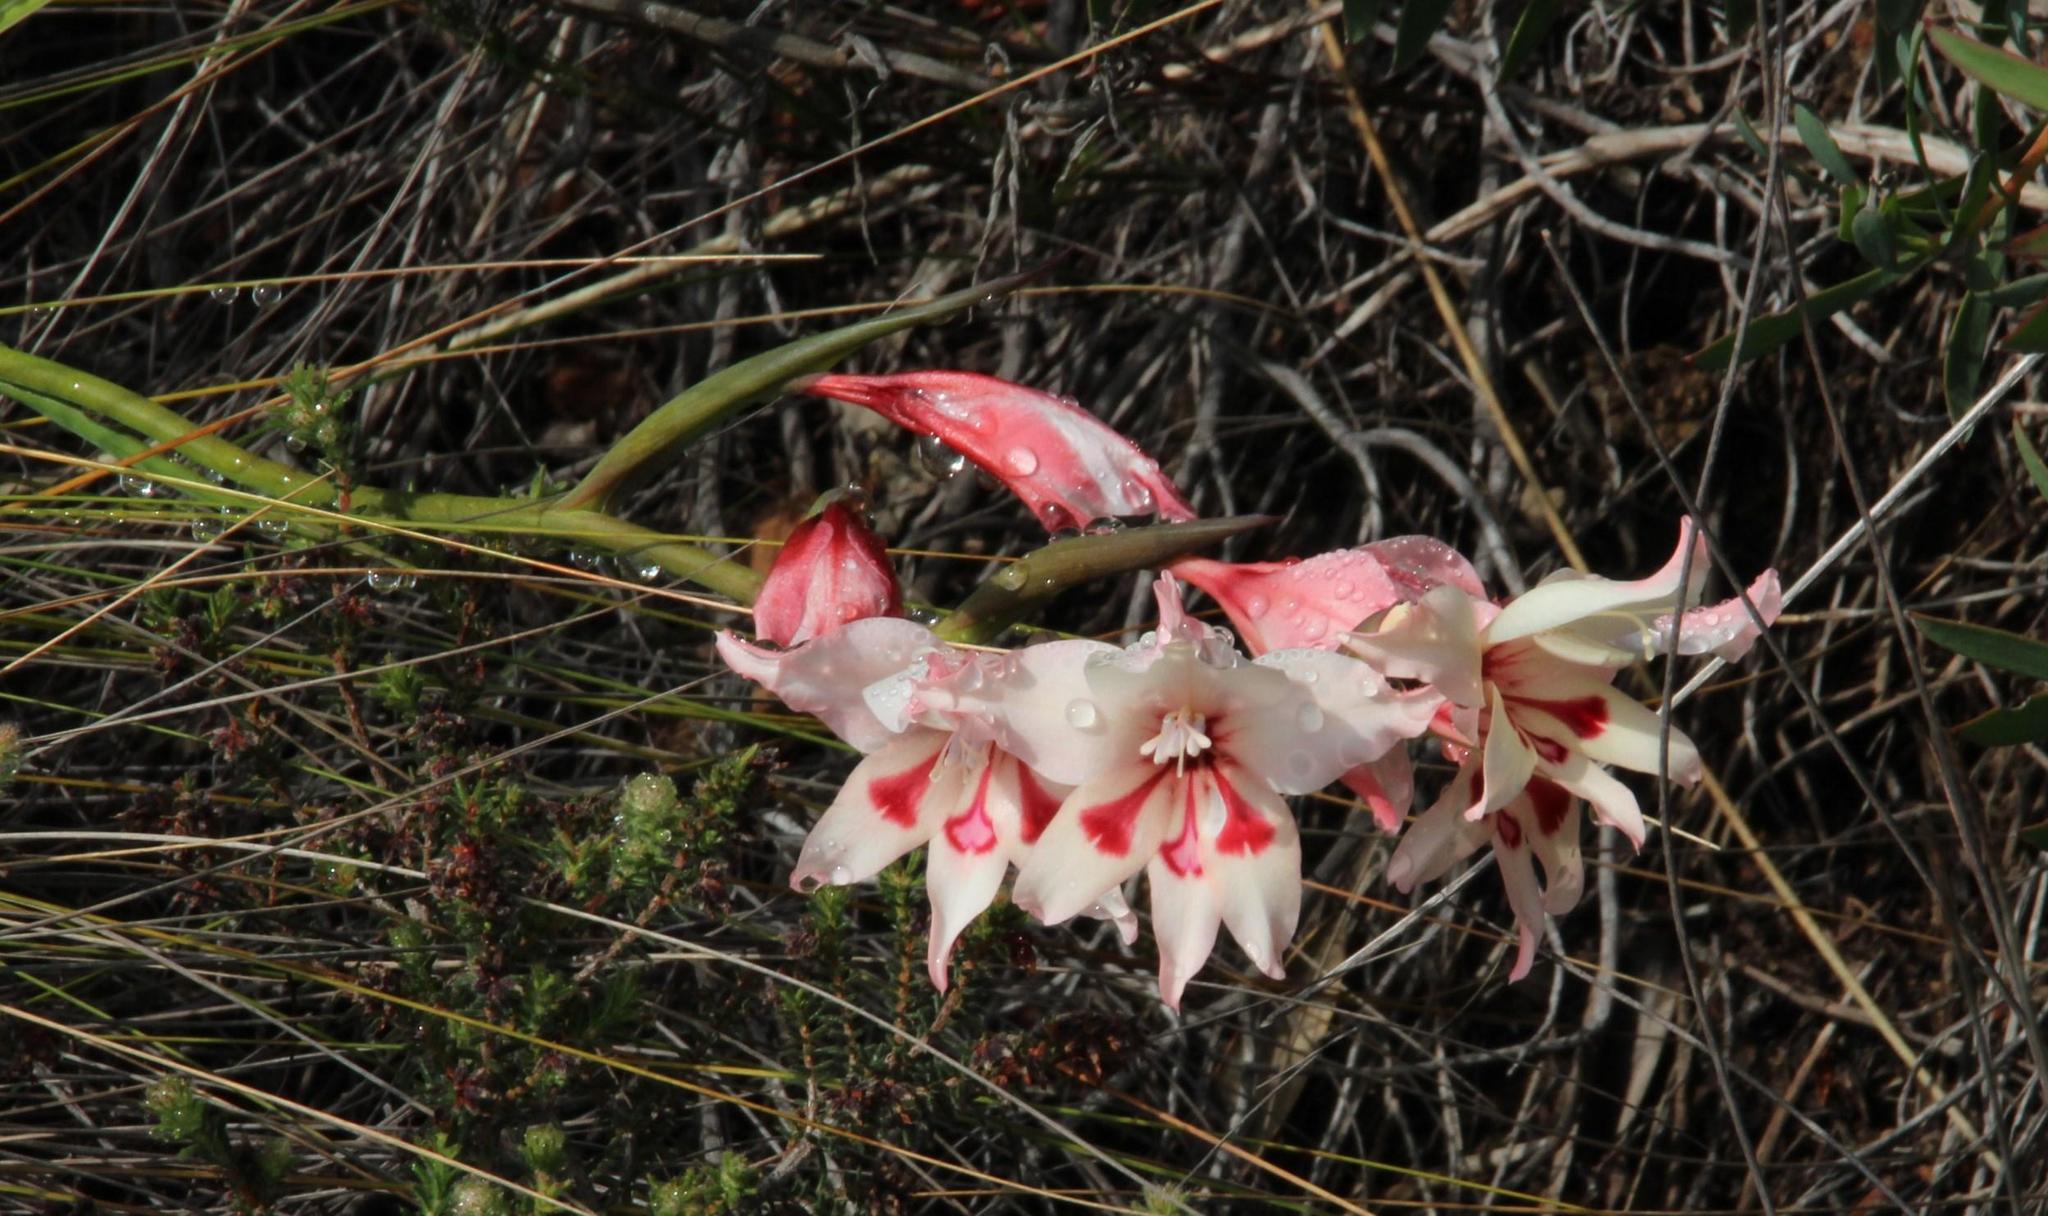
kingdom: Plantae
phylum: Tracheophyta
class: Liliopsida
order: Asparagales
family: Iridaceae
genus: Gladiolus
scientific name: Gladiolus carneus
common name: Painted-lady
